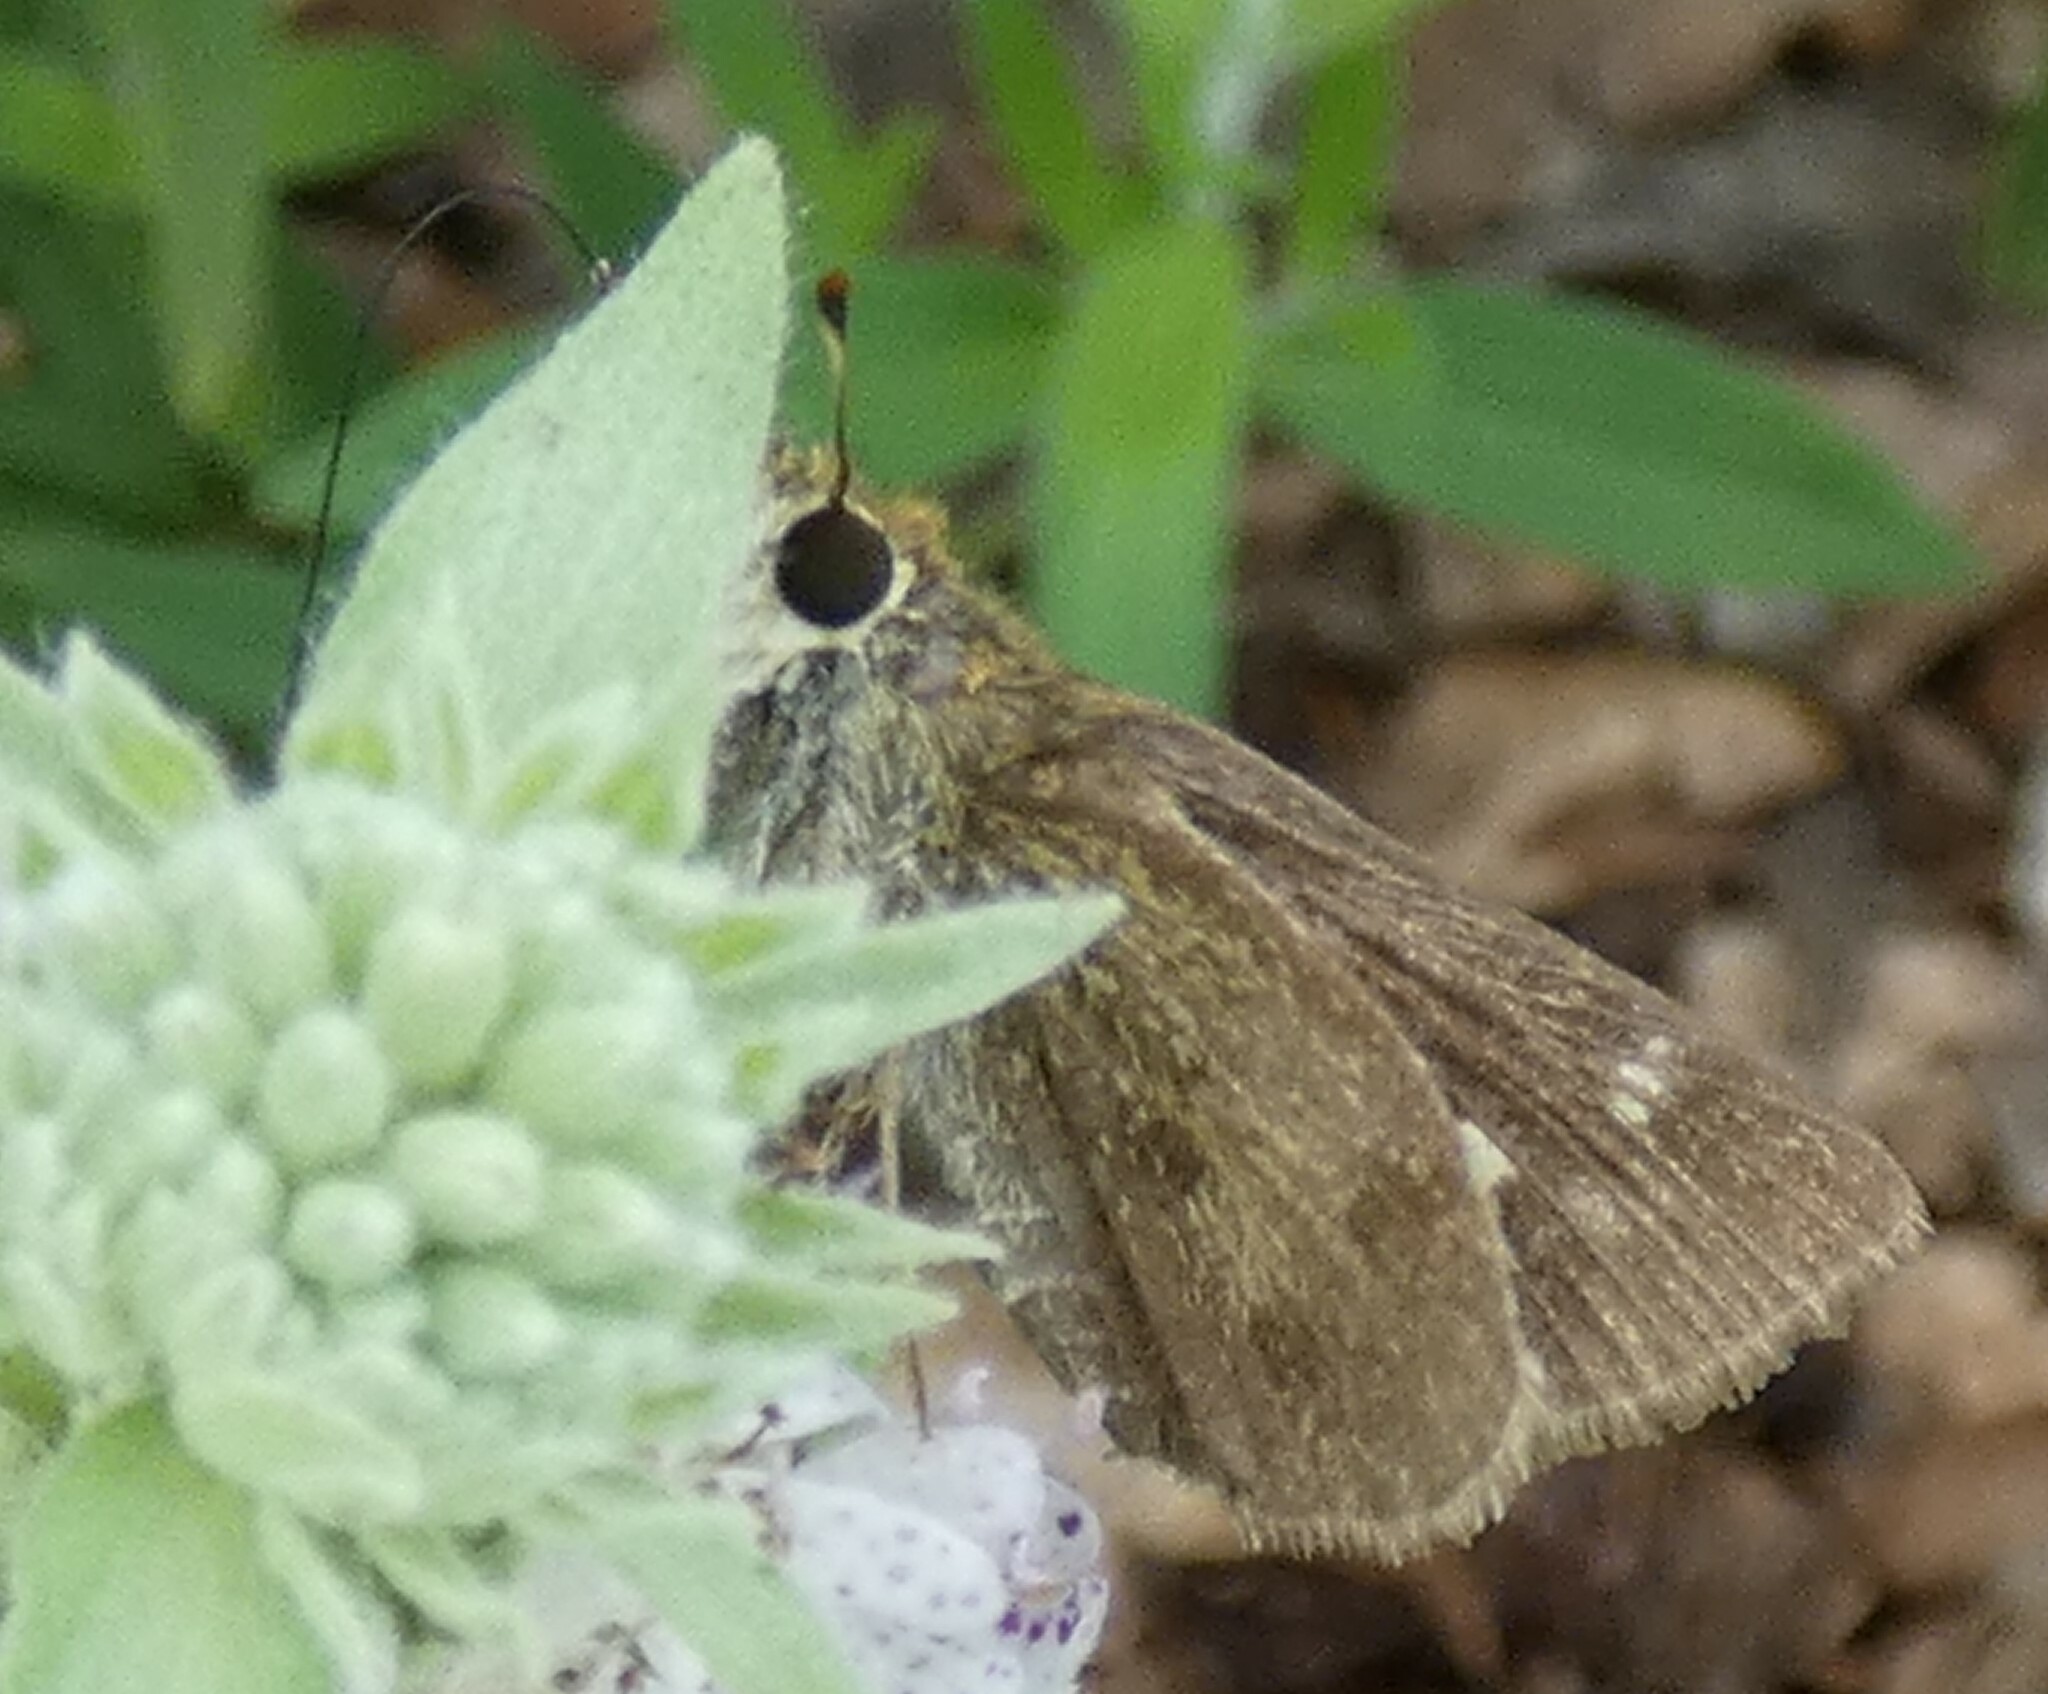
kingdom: Animalia
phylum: Arthropoda
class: Insecta
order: Lepidoptera
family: Hesperiidae
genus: Polites
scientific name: Polites vibex
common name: Whirlabout
